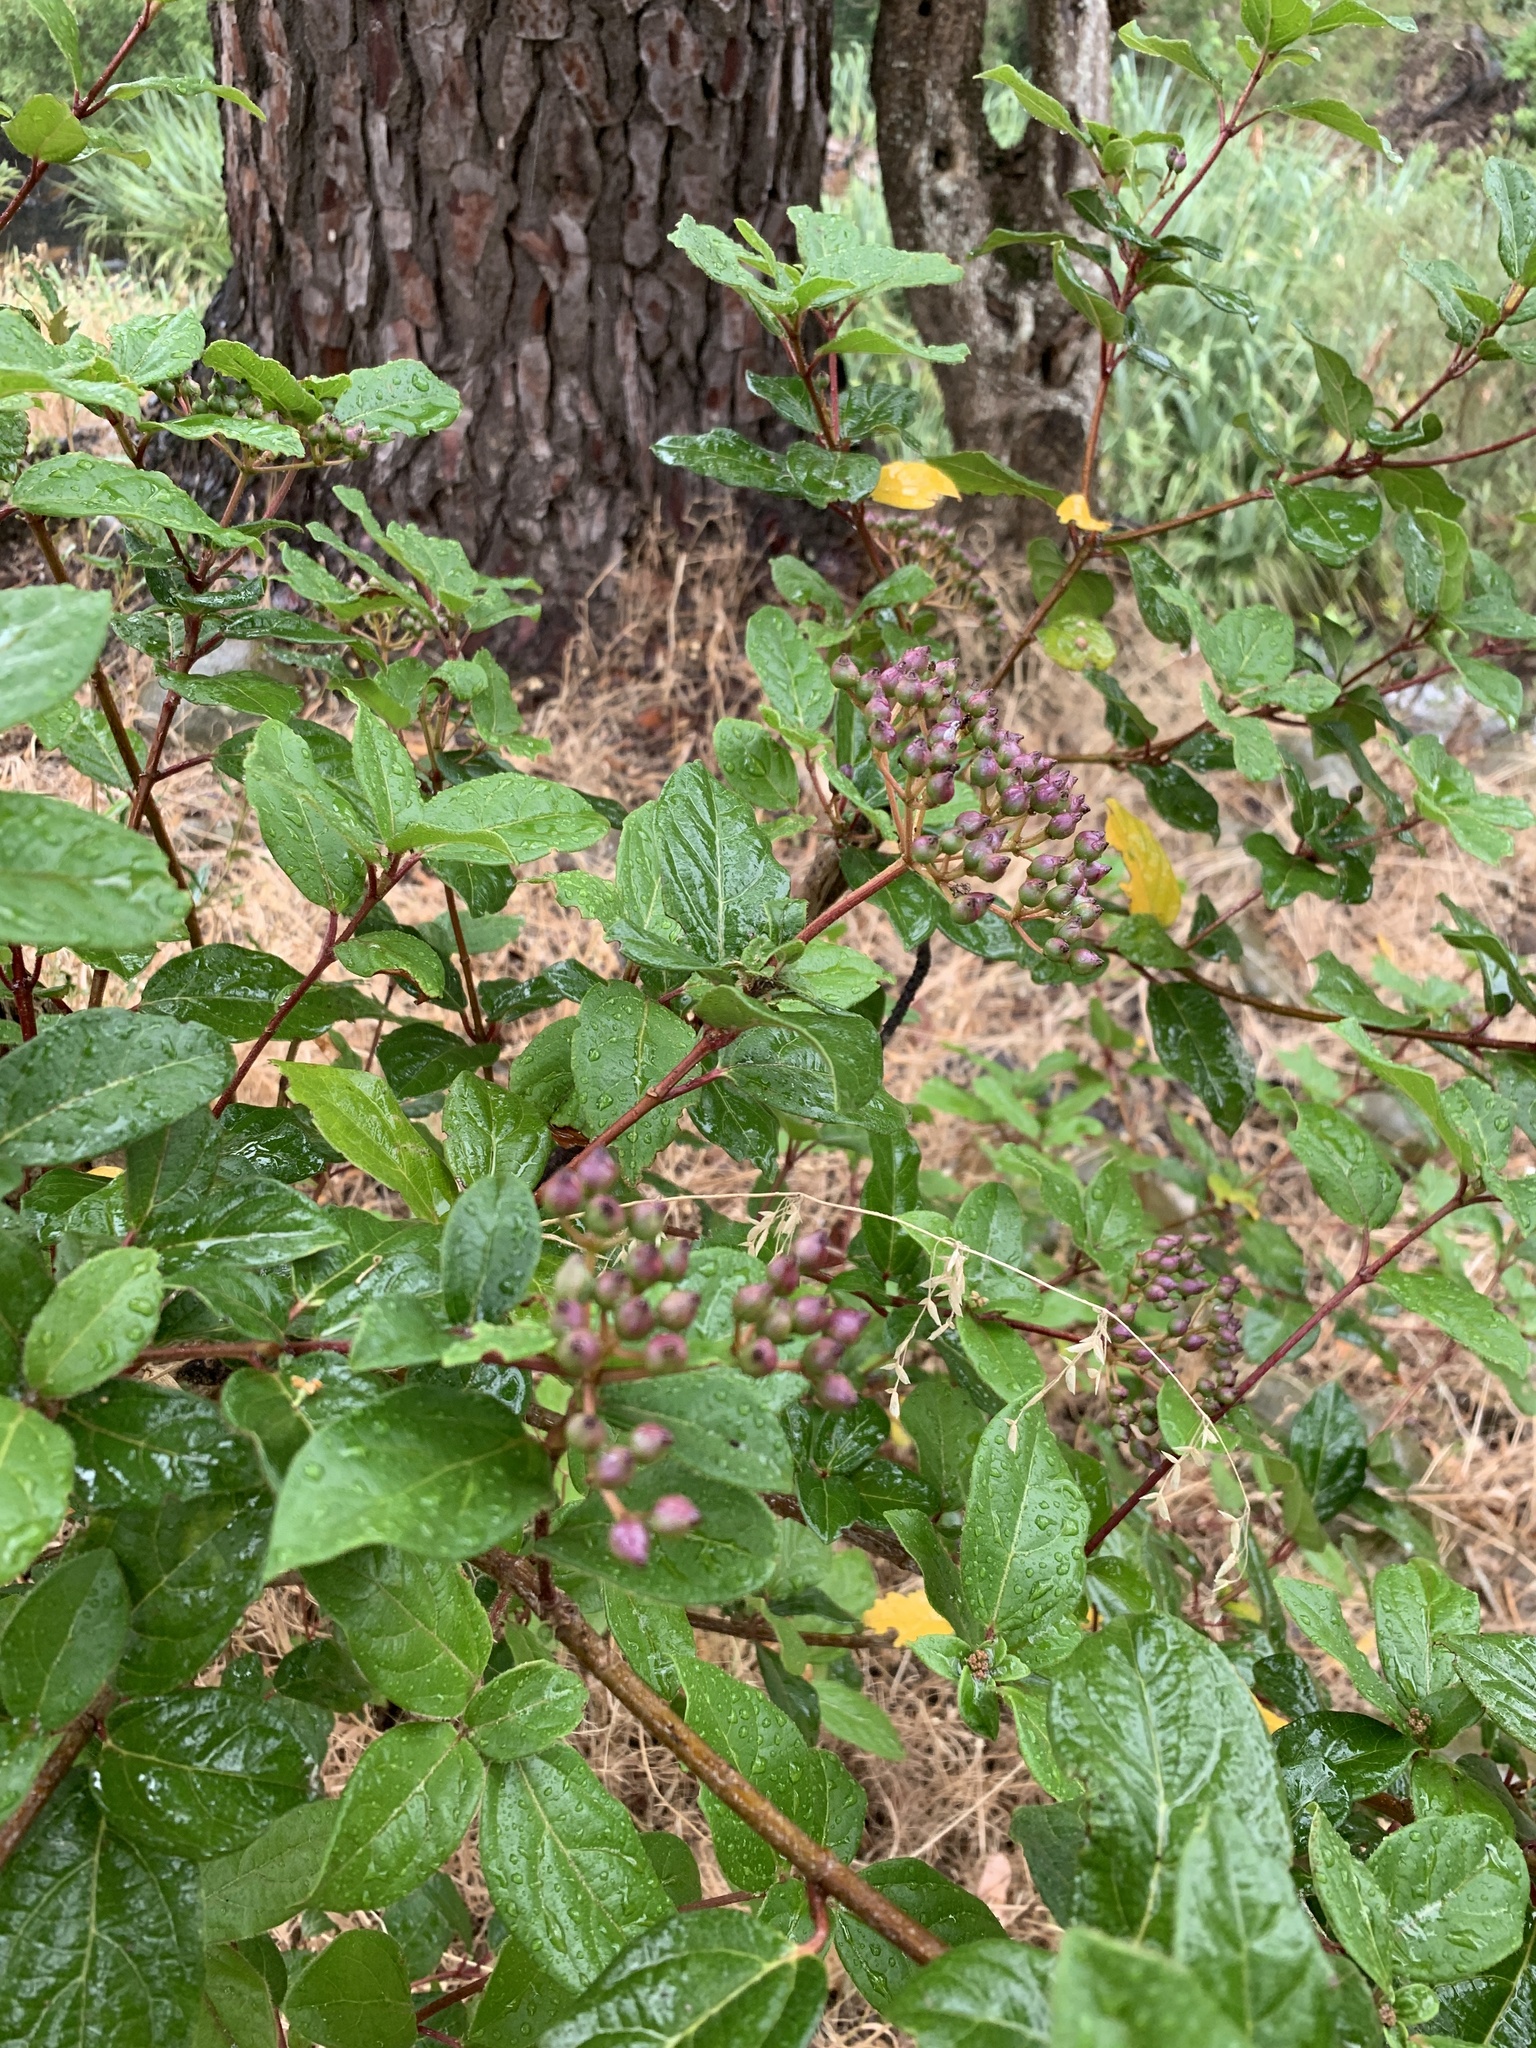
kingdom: Plantae
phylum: Tracheophyta
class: Magnoliopsida
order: Dipsacales
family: Viburnaceae
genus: Viburnum
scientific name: Viburnum tinus
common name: Laurustinus
